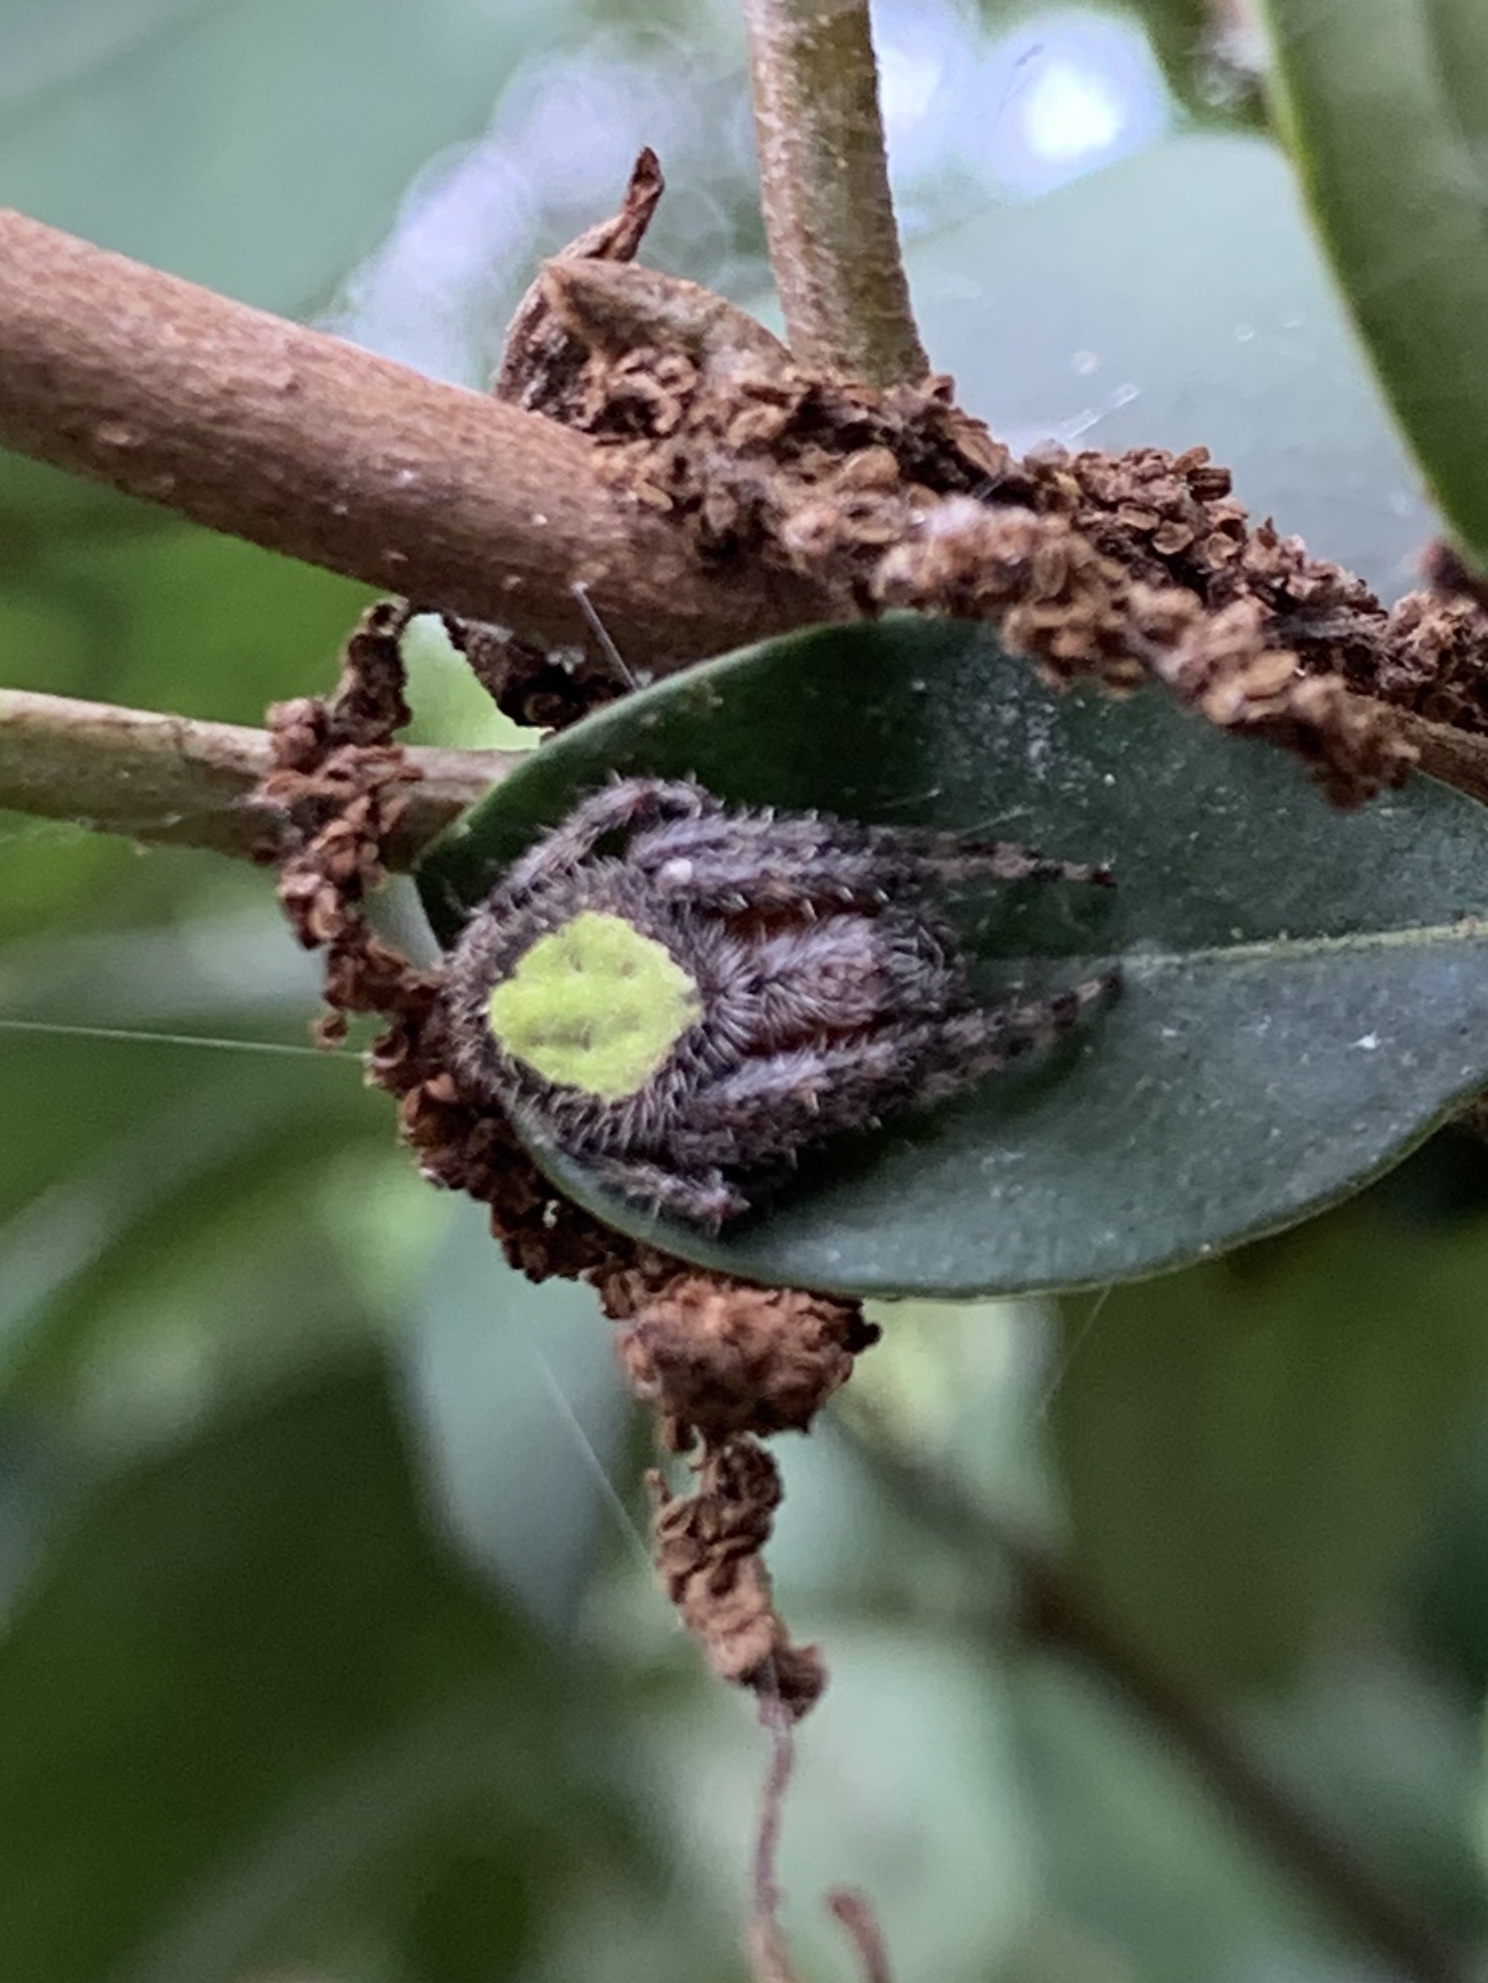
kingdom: Animalia
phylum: Arthropoda
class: Arachnida
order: Araneae
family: Araneidae
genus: Eriophora
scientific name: Eriophora ravilla
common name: Orb weavers
